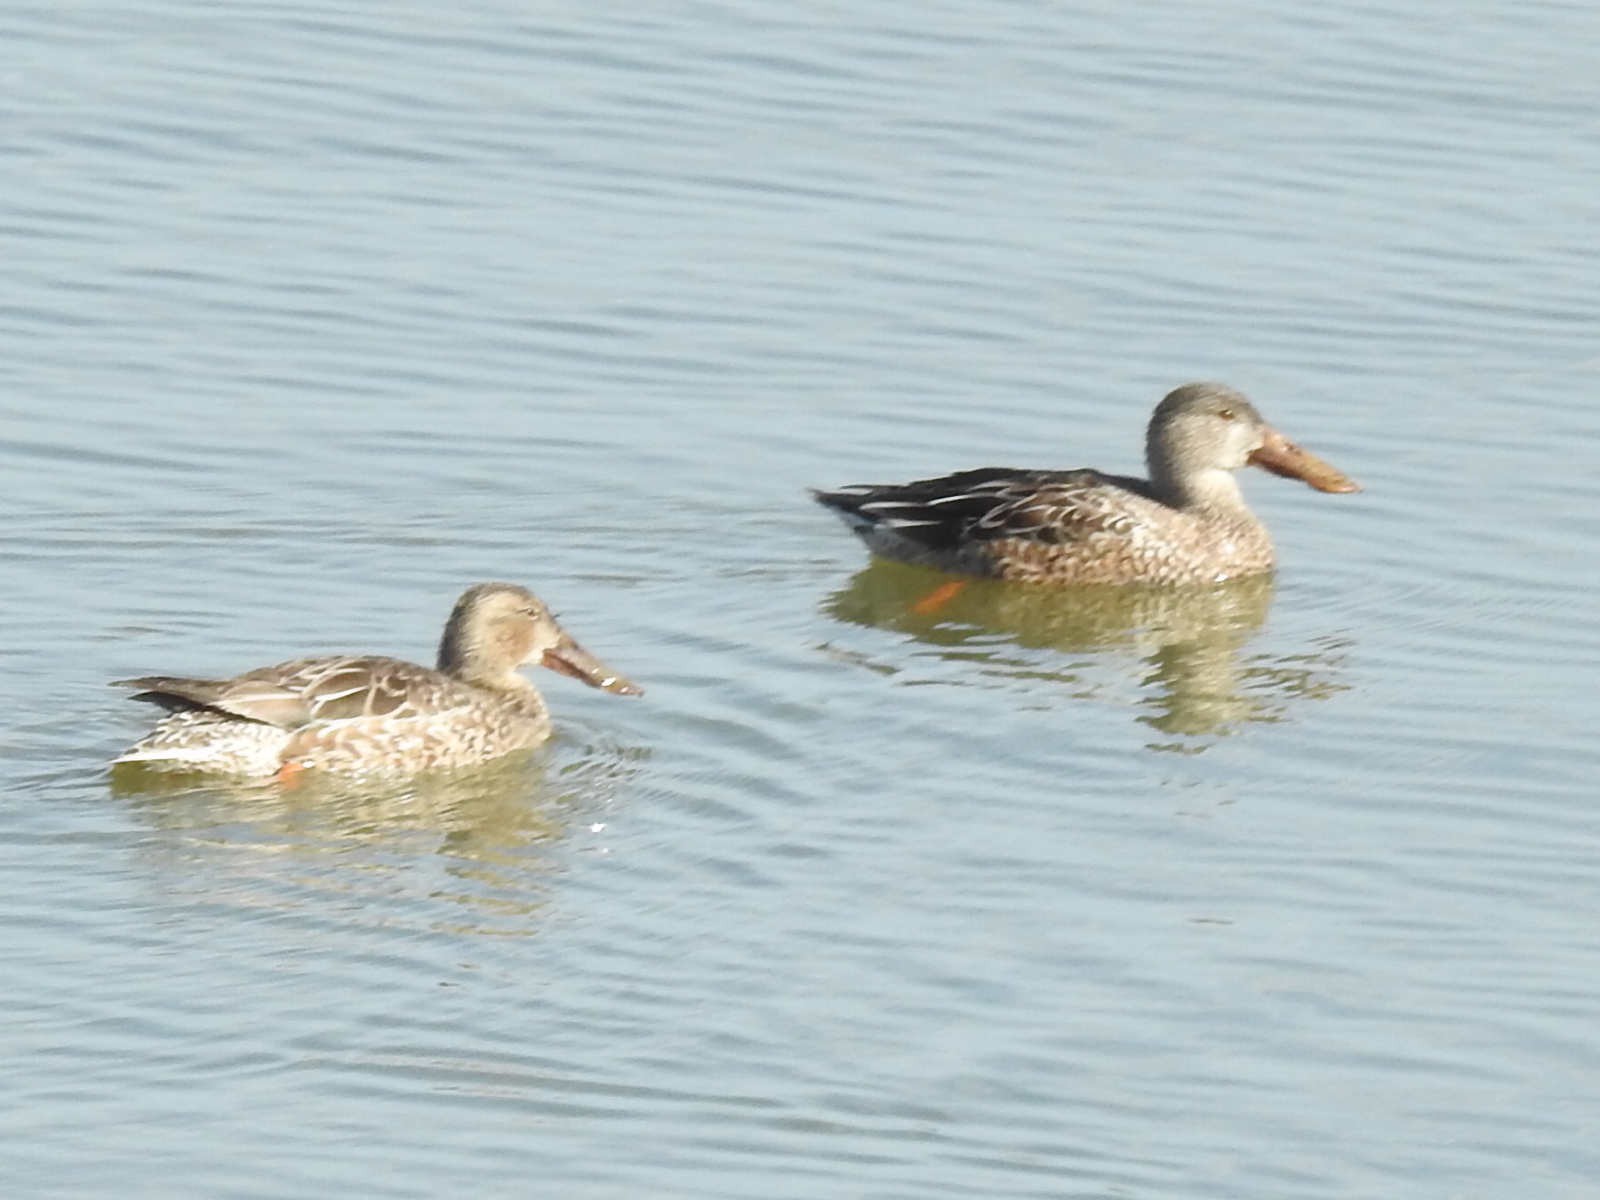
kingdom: Animalia
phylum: Chordata
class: Aves
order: Anseriformes
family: Anatidae
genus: Spatula
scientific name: Spatula clypeata
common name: Northern shoveler
